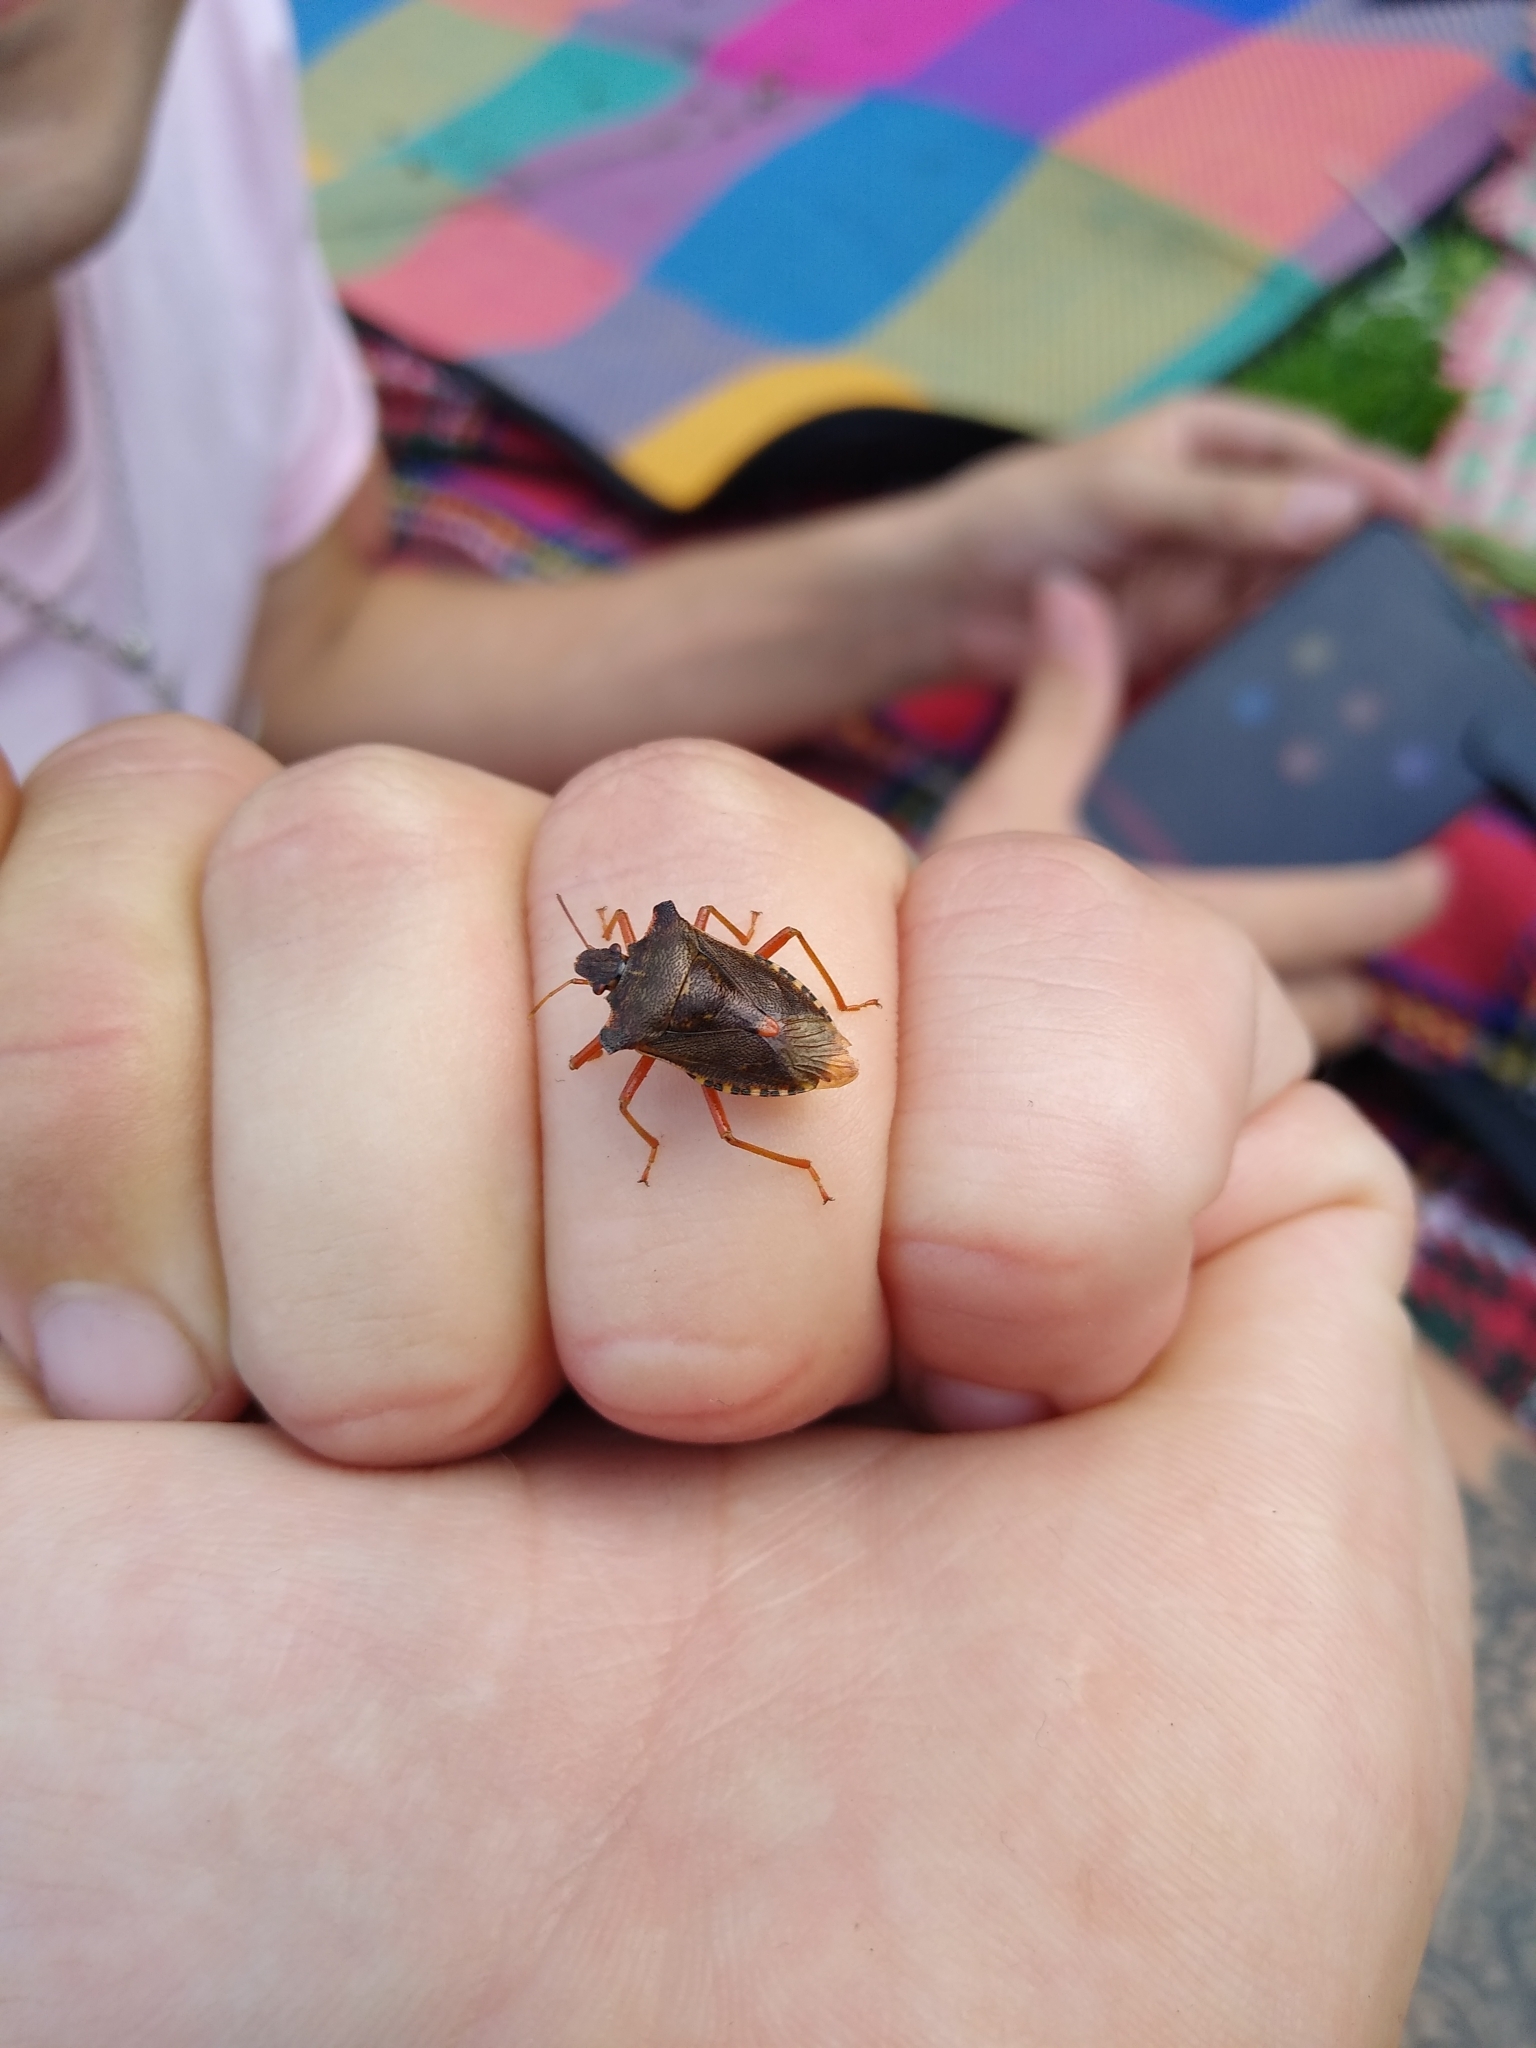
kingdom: Animalia
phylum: Arthropoda
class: Insecta
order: Hemiptera
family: Pentatomidae
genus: Pentatoma
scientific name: Pentatoma rufipes
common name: Forest bug
